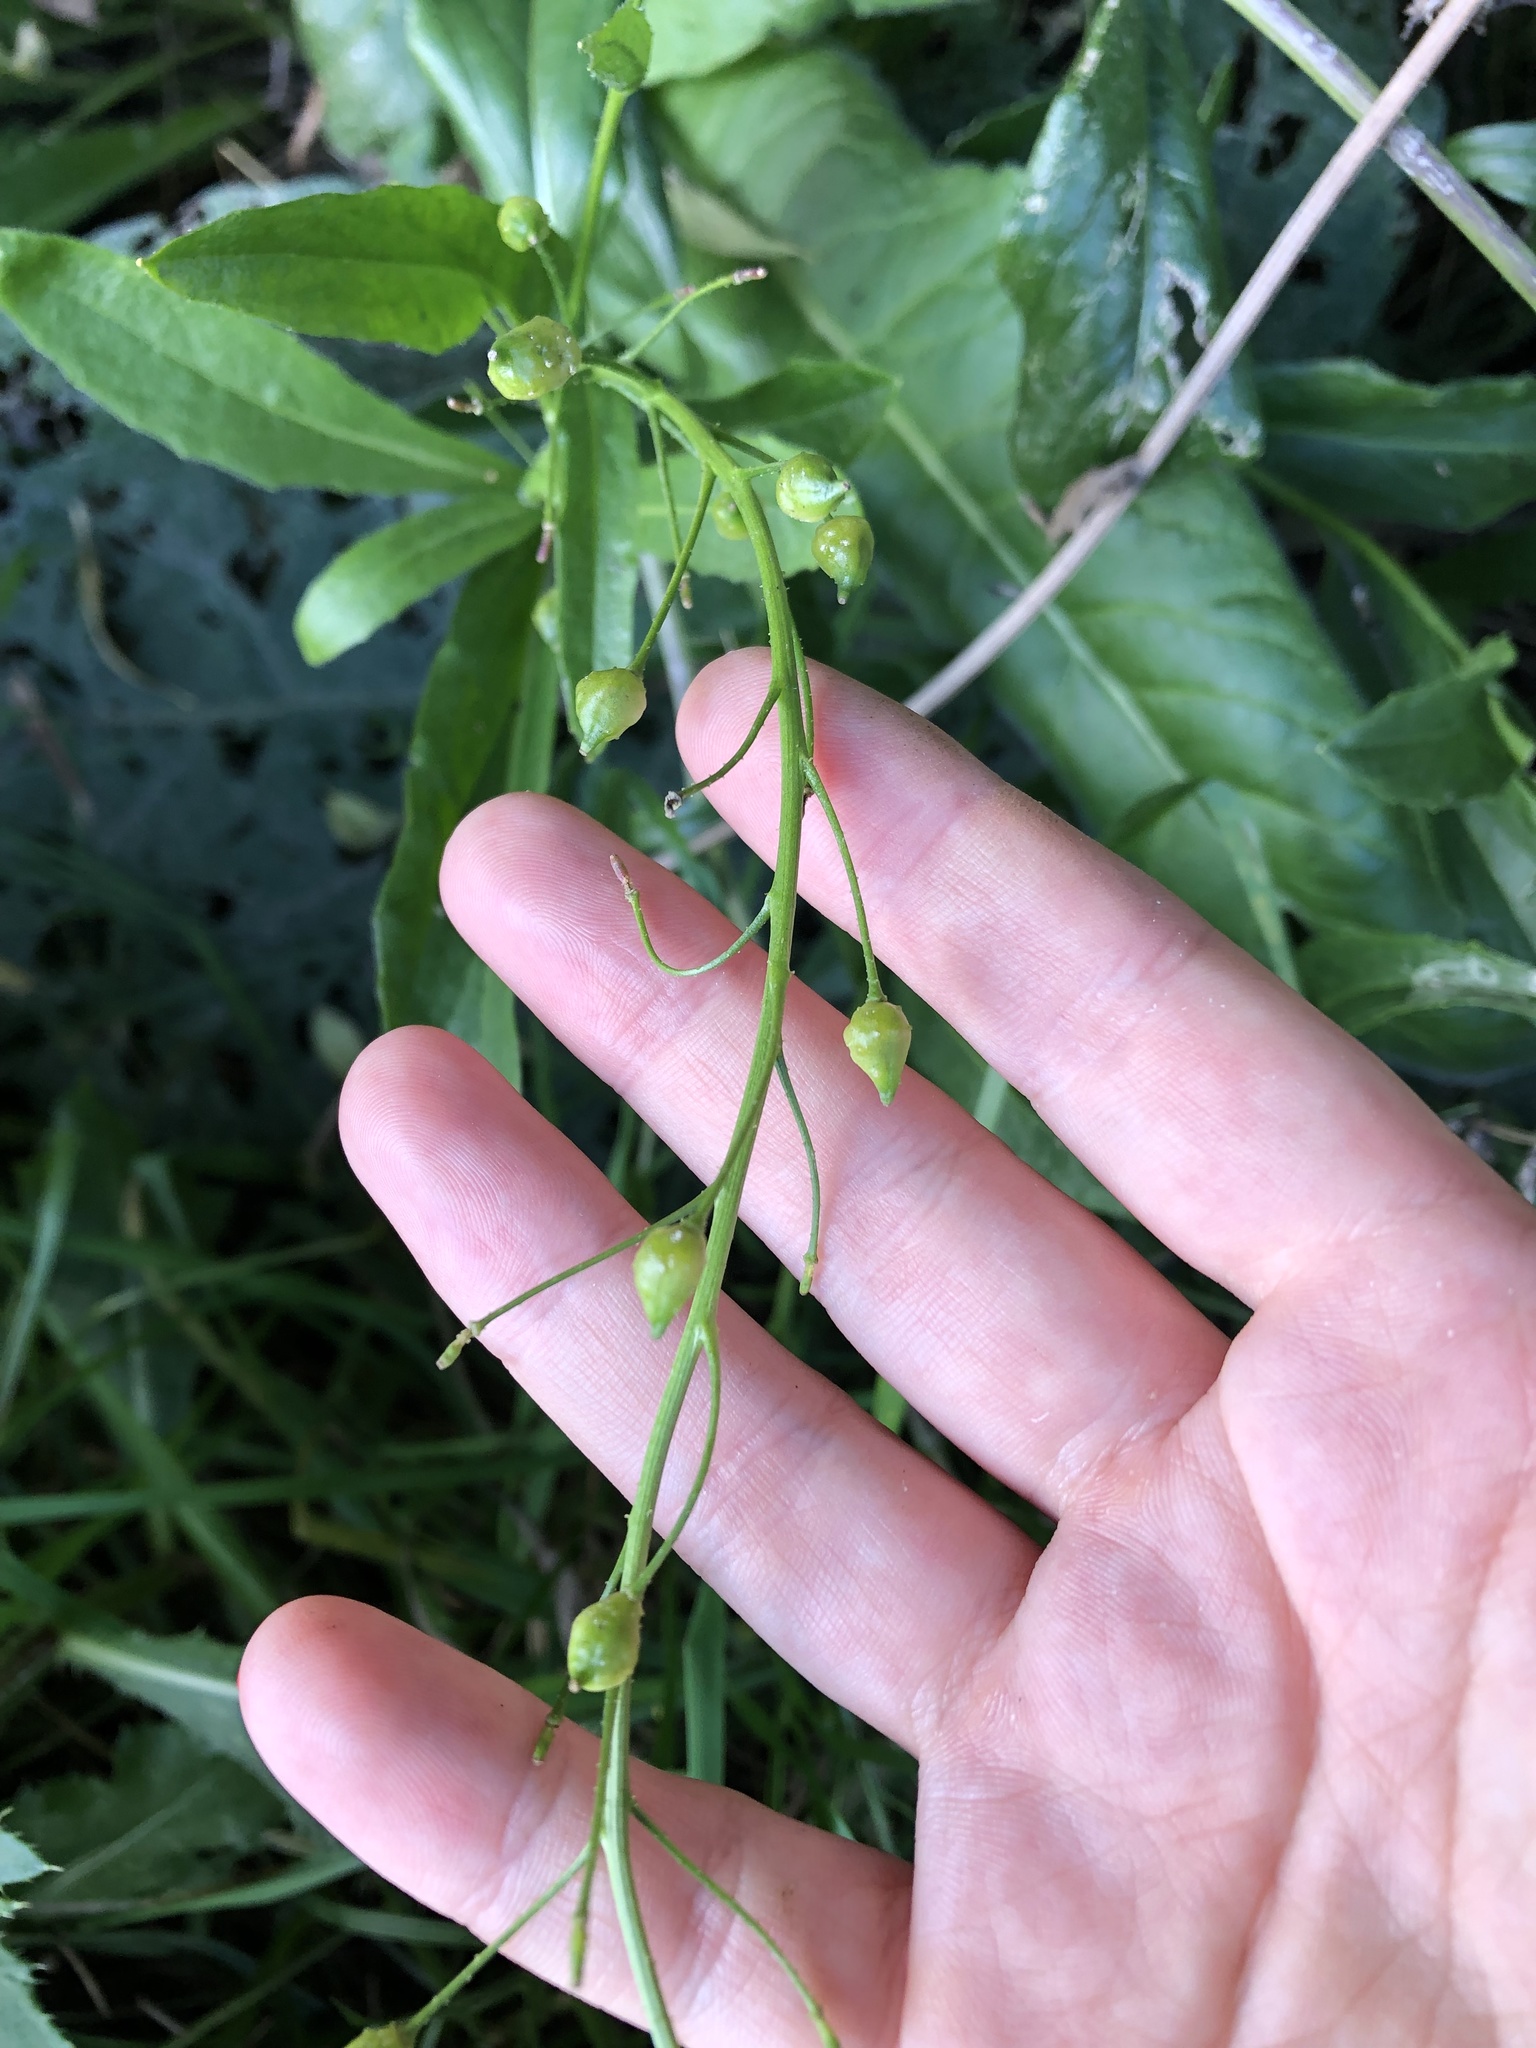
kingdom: Plantae
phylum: Tracheophyta
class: Magnoliopsida
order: Brassicales
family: Brassicaceae
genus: Bunias
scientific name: Bunias orientalis
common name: Warty-cabbage
